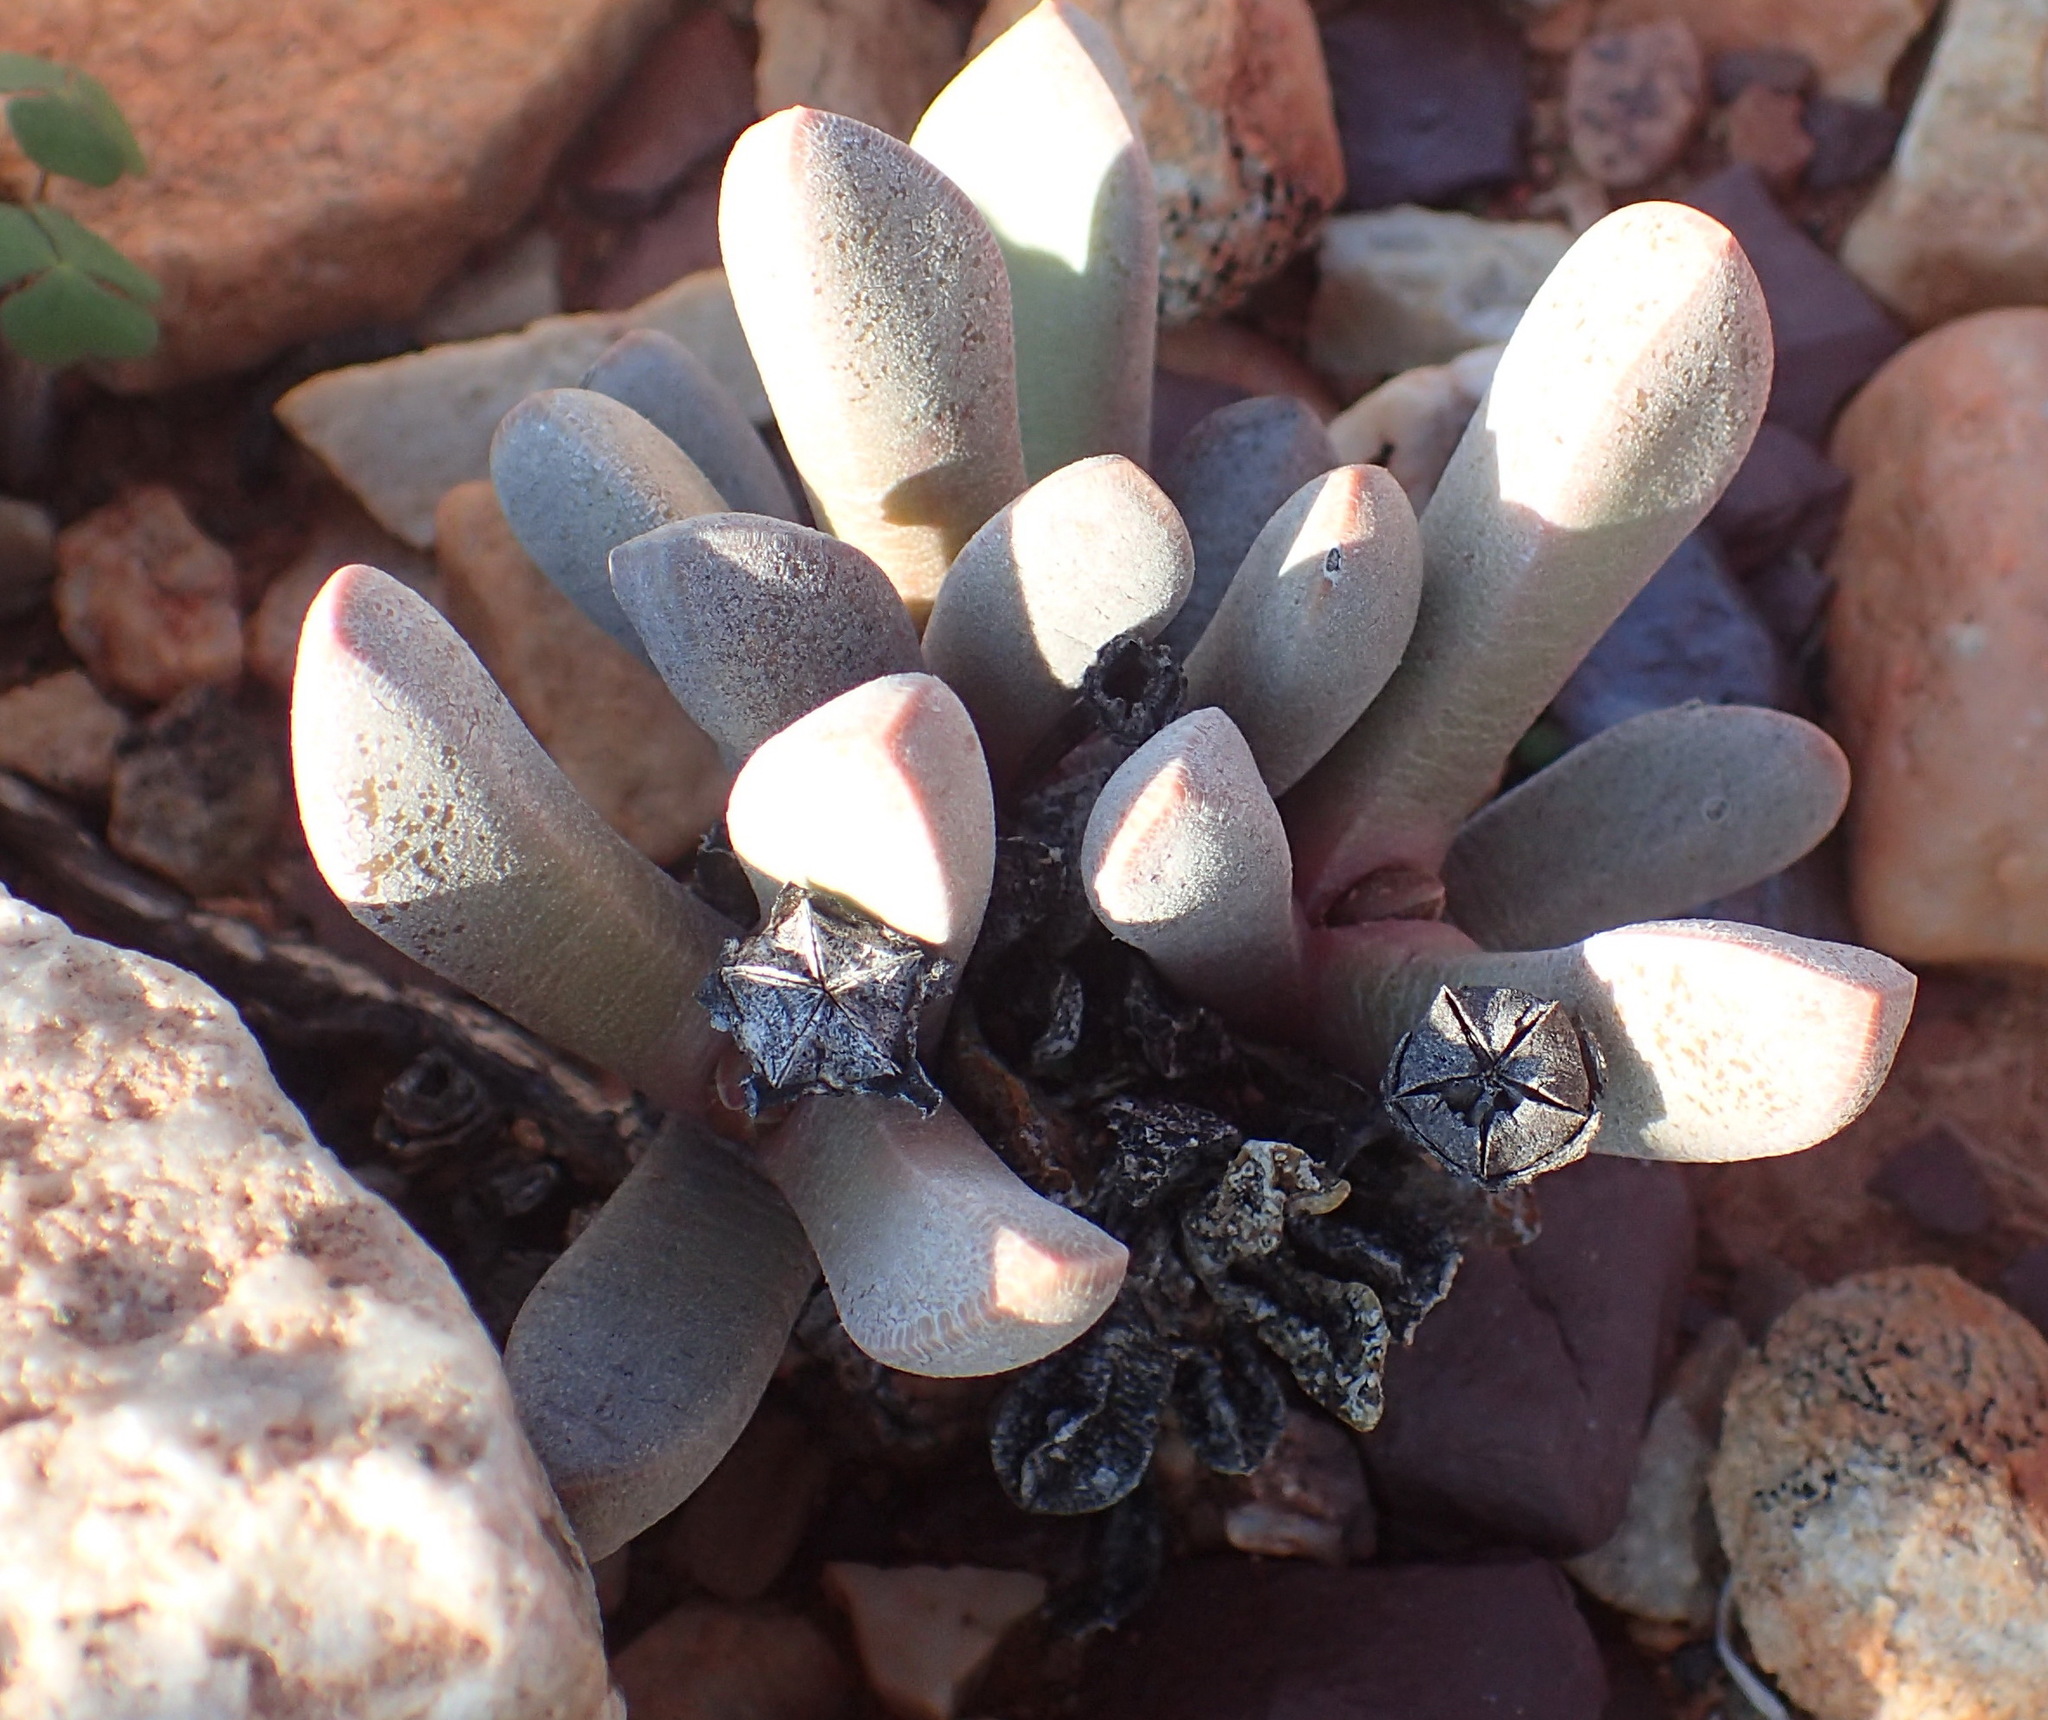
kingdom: Plantae
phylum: Tracheophyta
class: Magnoliopsida
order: Caryophyllales
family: Aizoaceae
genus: Cerochlamys
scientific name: Cerochlamys pachyphylla
